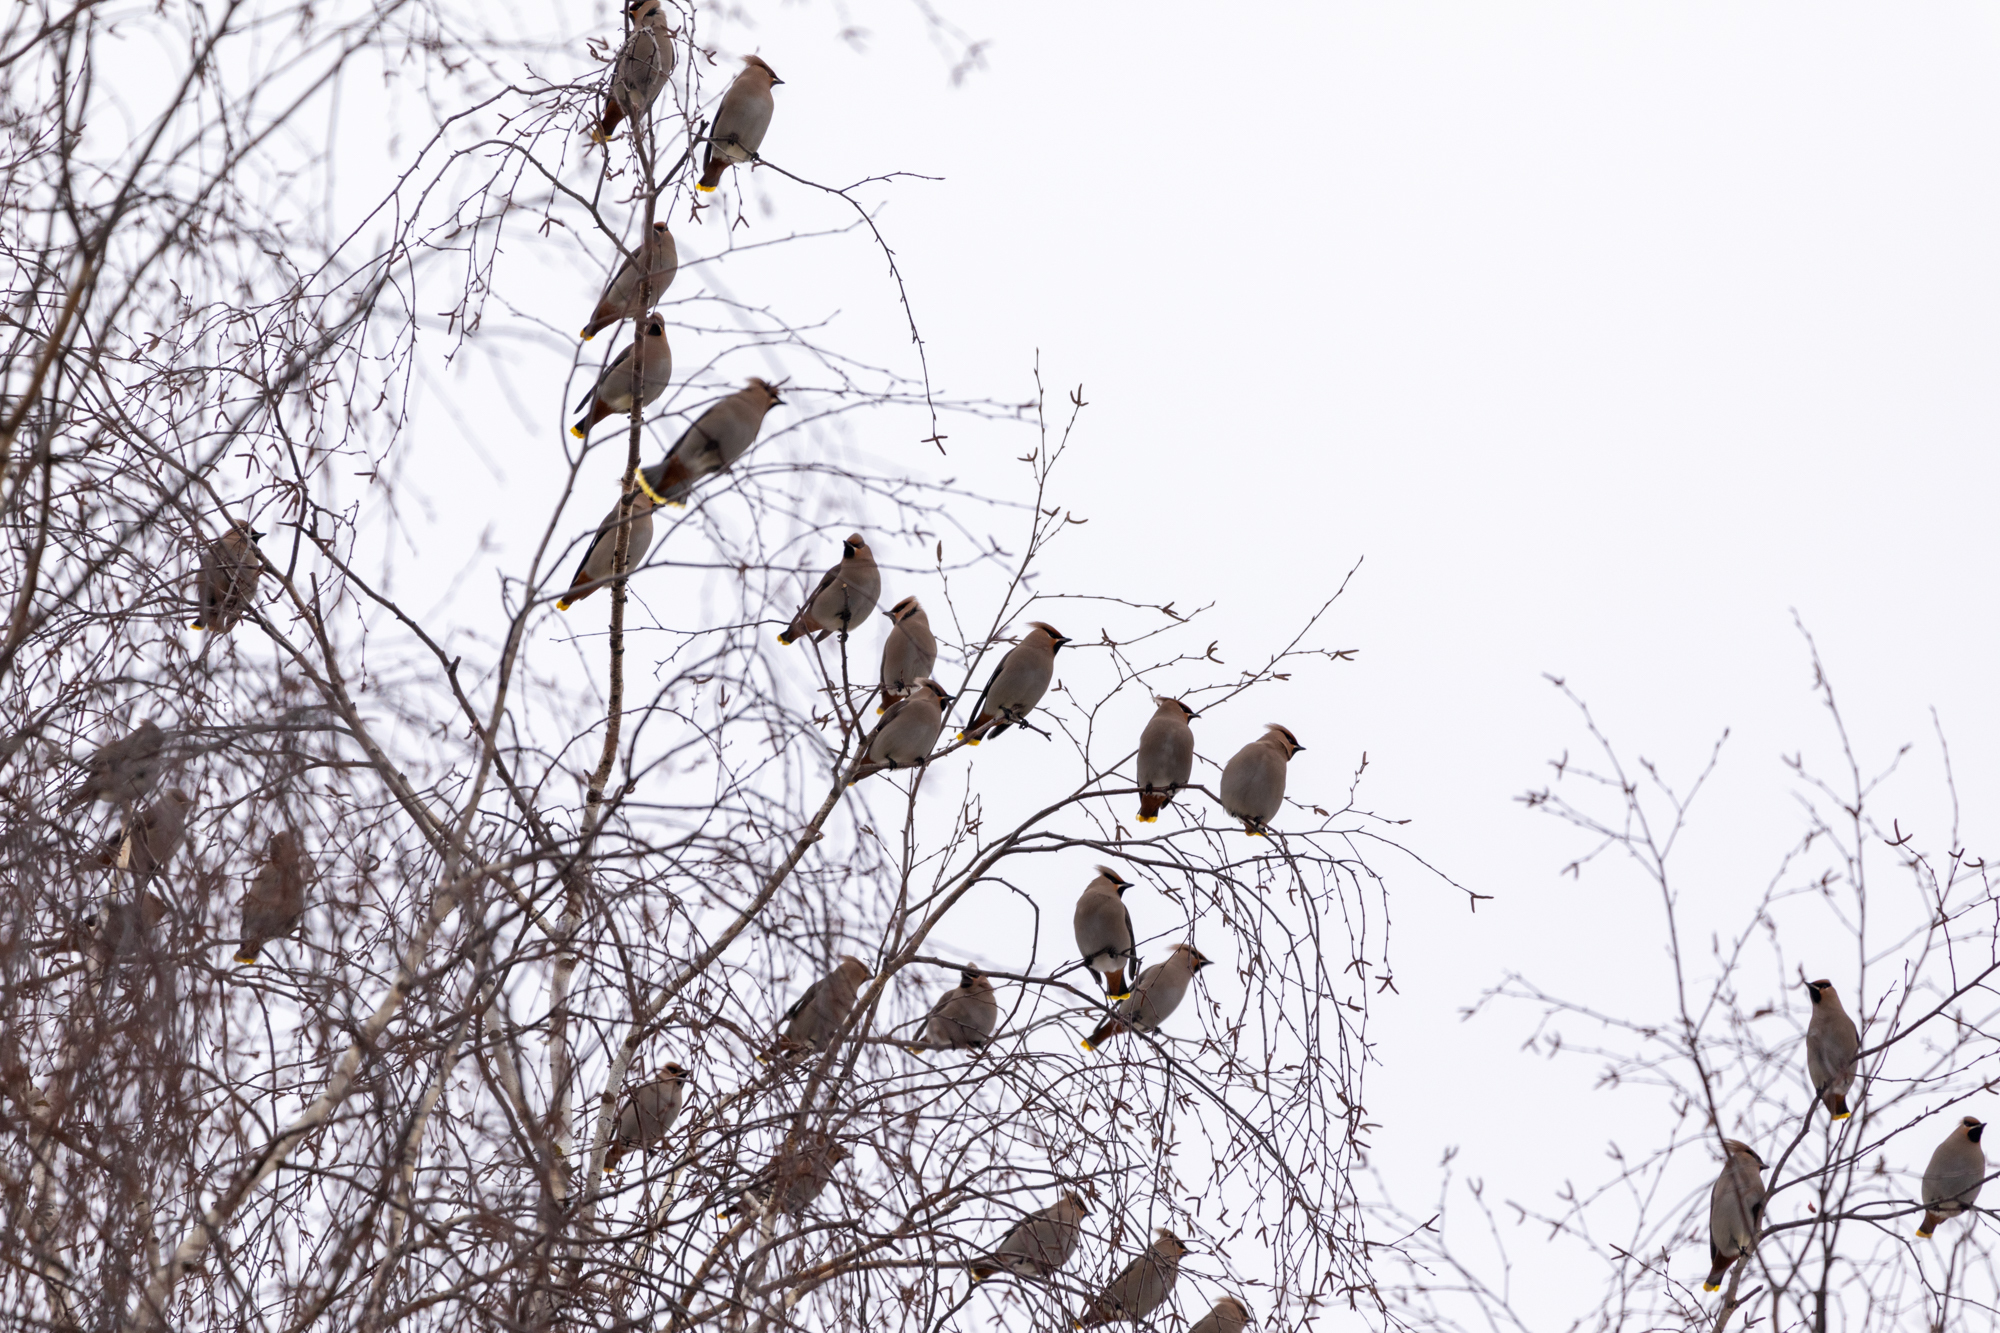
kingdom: Animalia
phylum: Chordata
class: Aves
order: Passeriformes
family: Bombycillidae
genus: Bombycilla
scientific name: Bombycilla garrulus
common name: Bohemian waxwing
